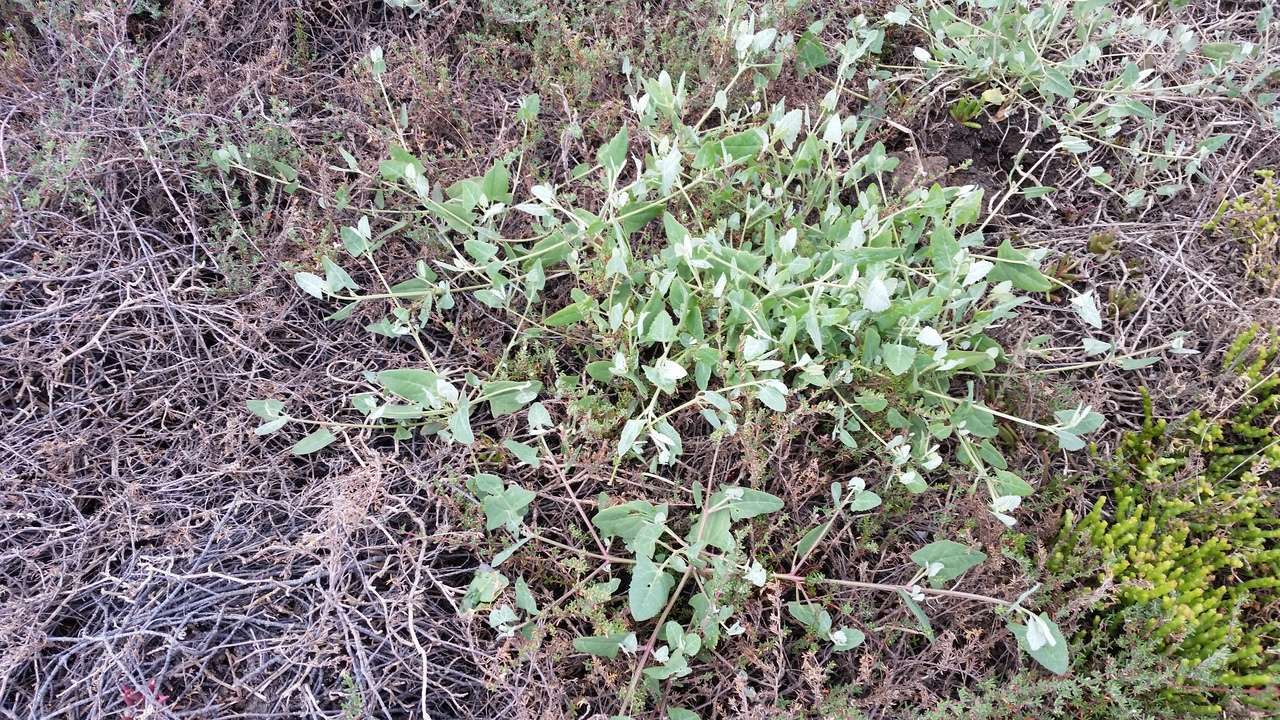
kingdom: Plantae
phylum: Tracheophyta
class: Magnoliopsida
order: Caryophyllales
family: Amaranthaceae
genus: Atriplex
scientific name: Atriplex prostrata
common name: Spear-leaved orache
